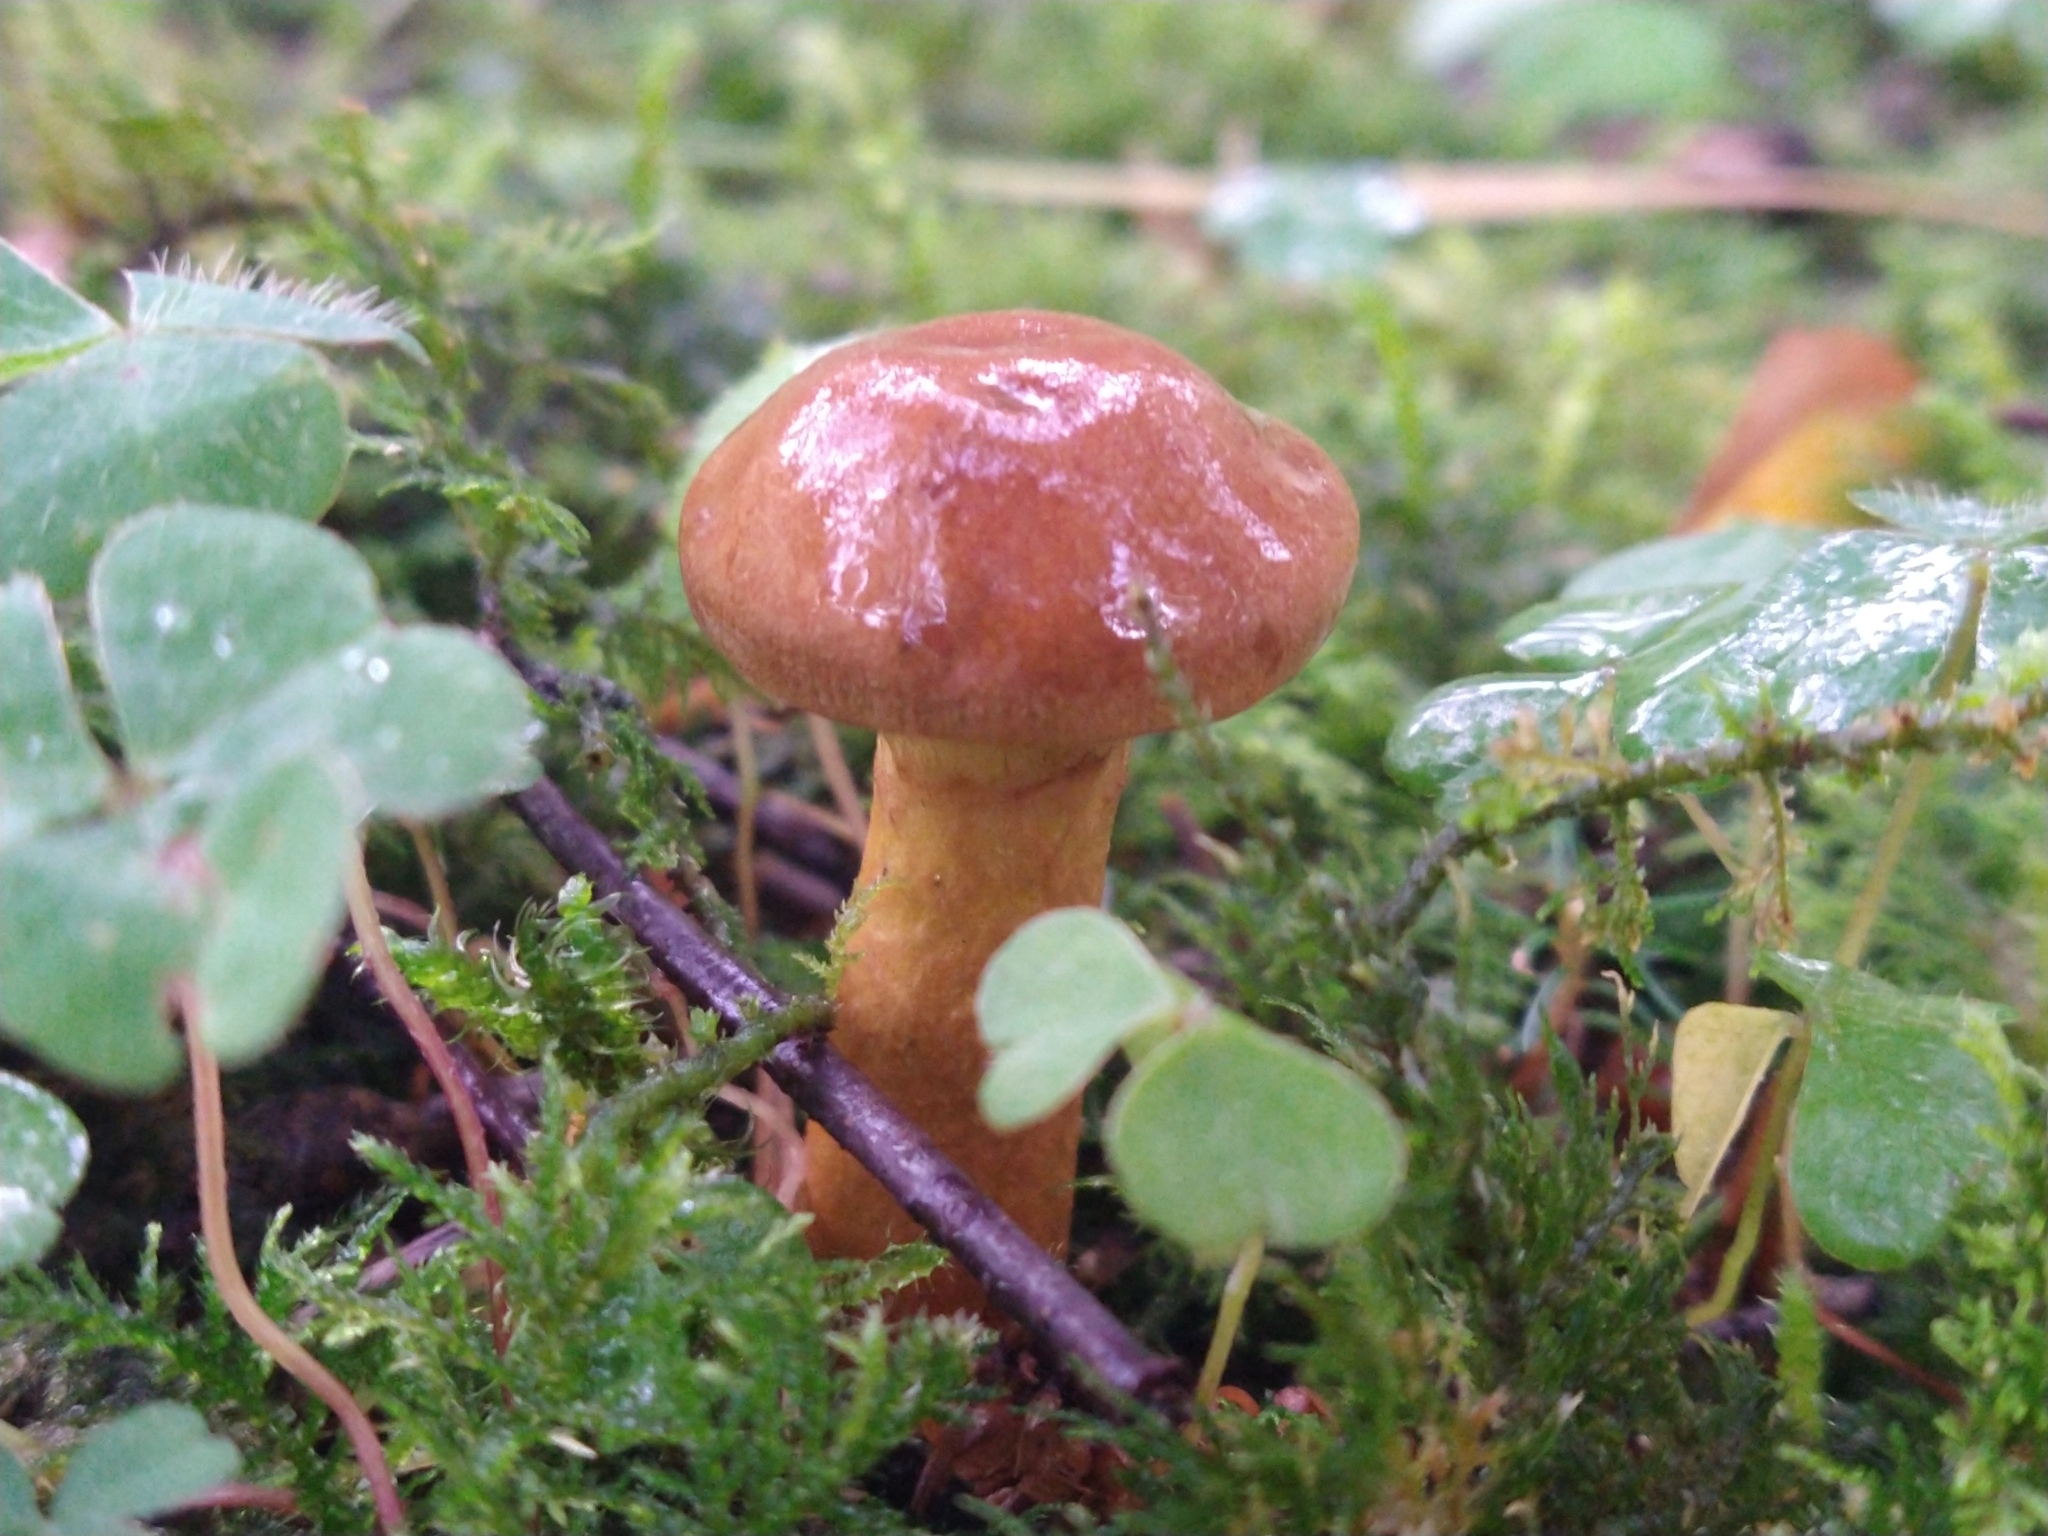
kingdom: Fungi
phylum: Basidiomycota
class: Agaricomycetes
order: Boletales
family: Suillaceae
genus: Suillus
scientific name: Suillus grevillei
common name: Larch bolete
